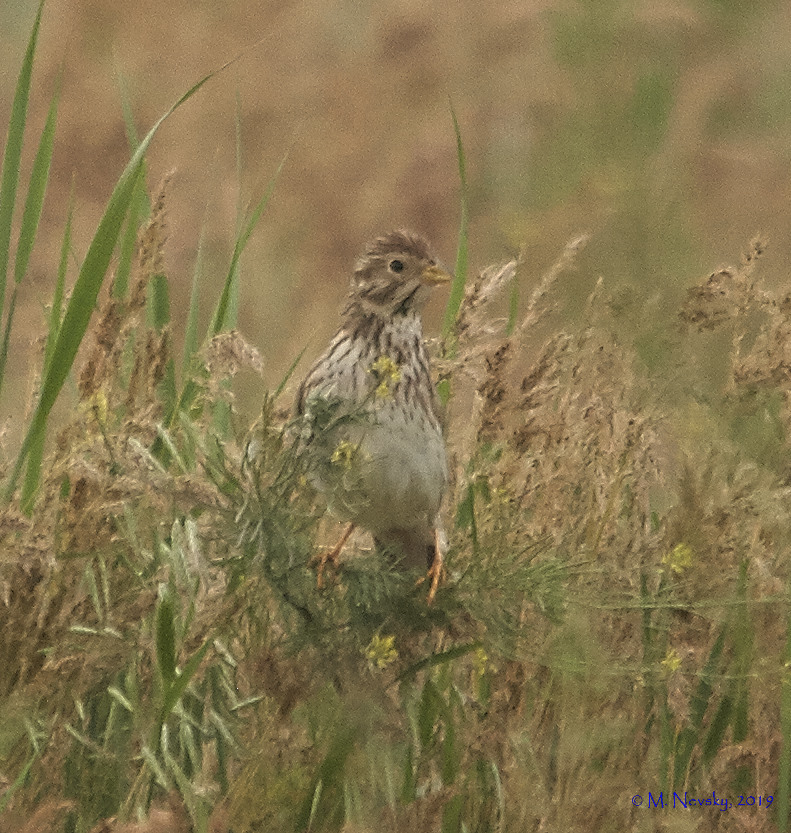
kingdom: Animalia
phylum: Chordata
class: Aves
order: Passeriformes
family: Emberizidae
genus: Emberiza
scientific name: Emberiza calandra
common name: Corn bunting
